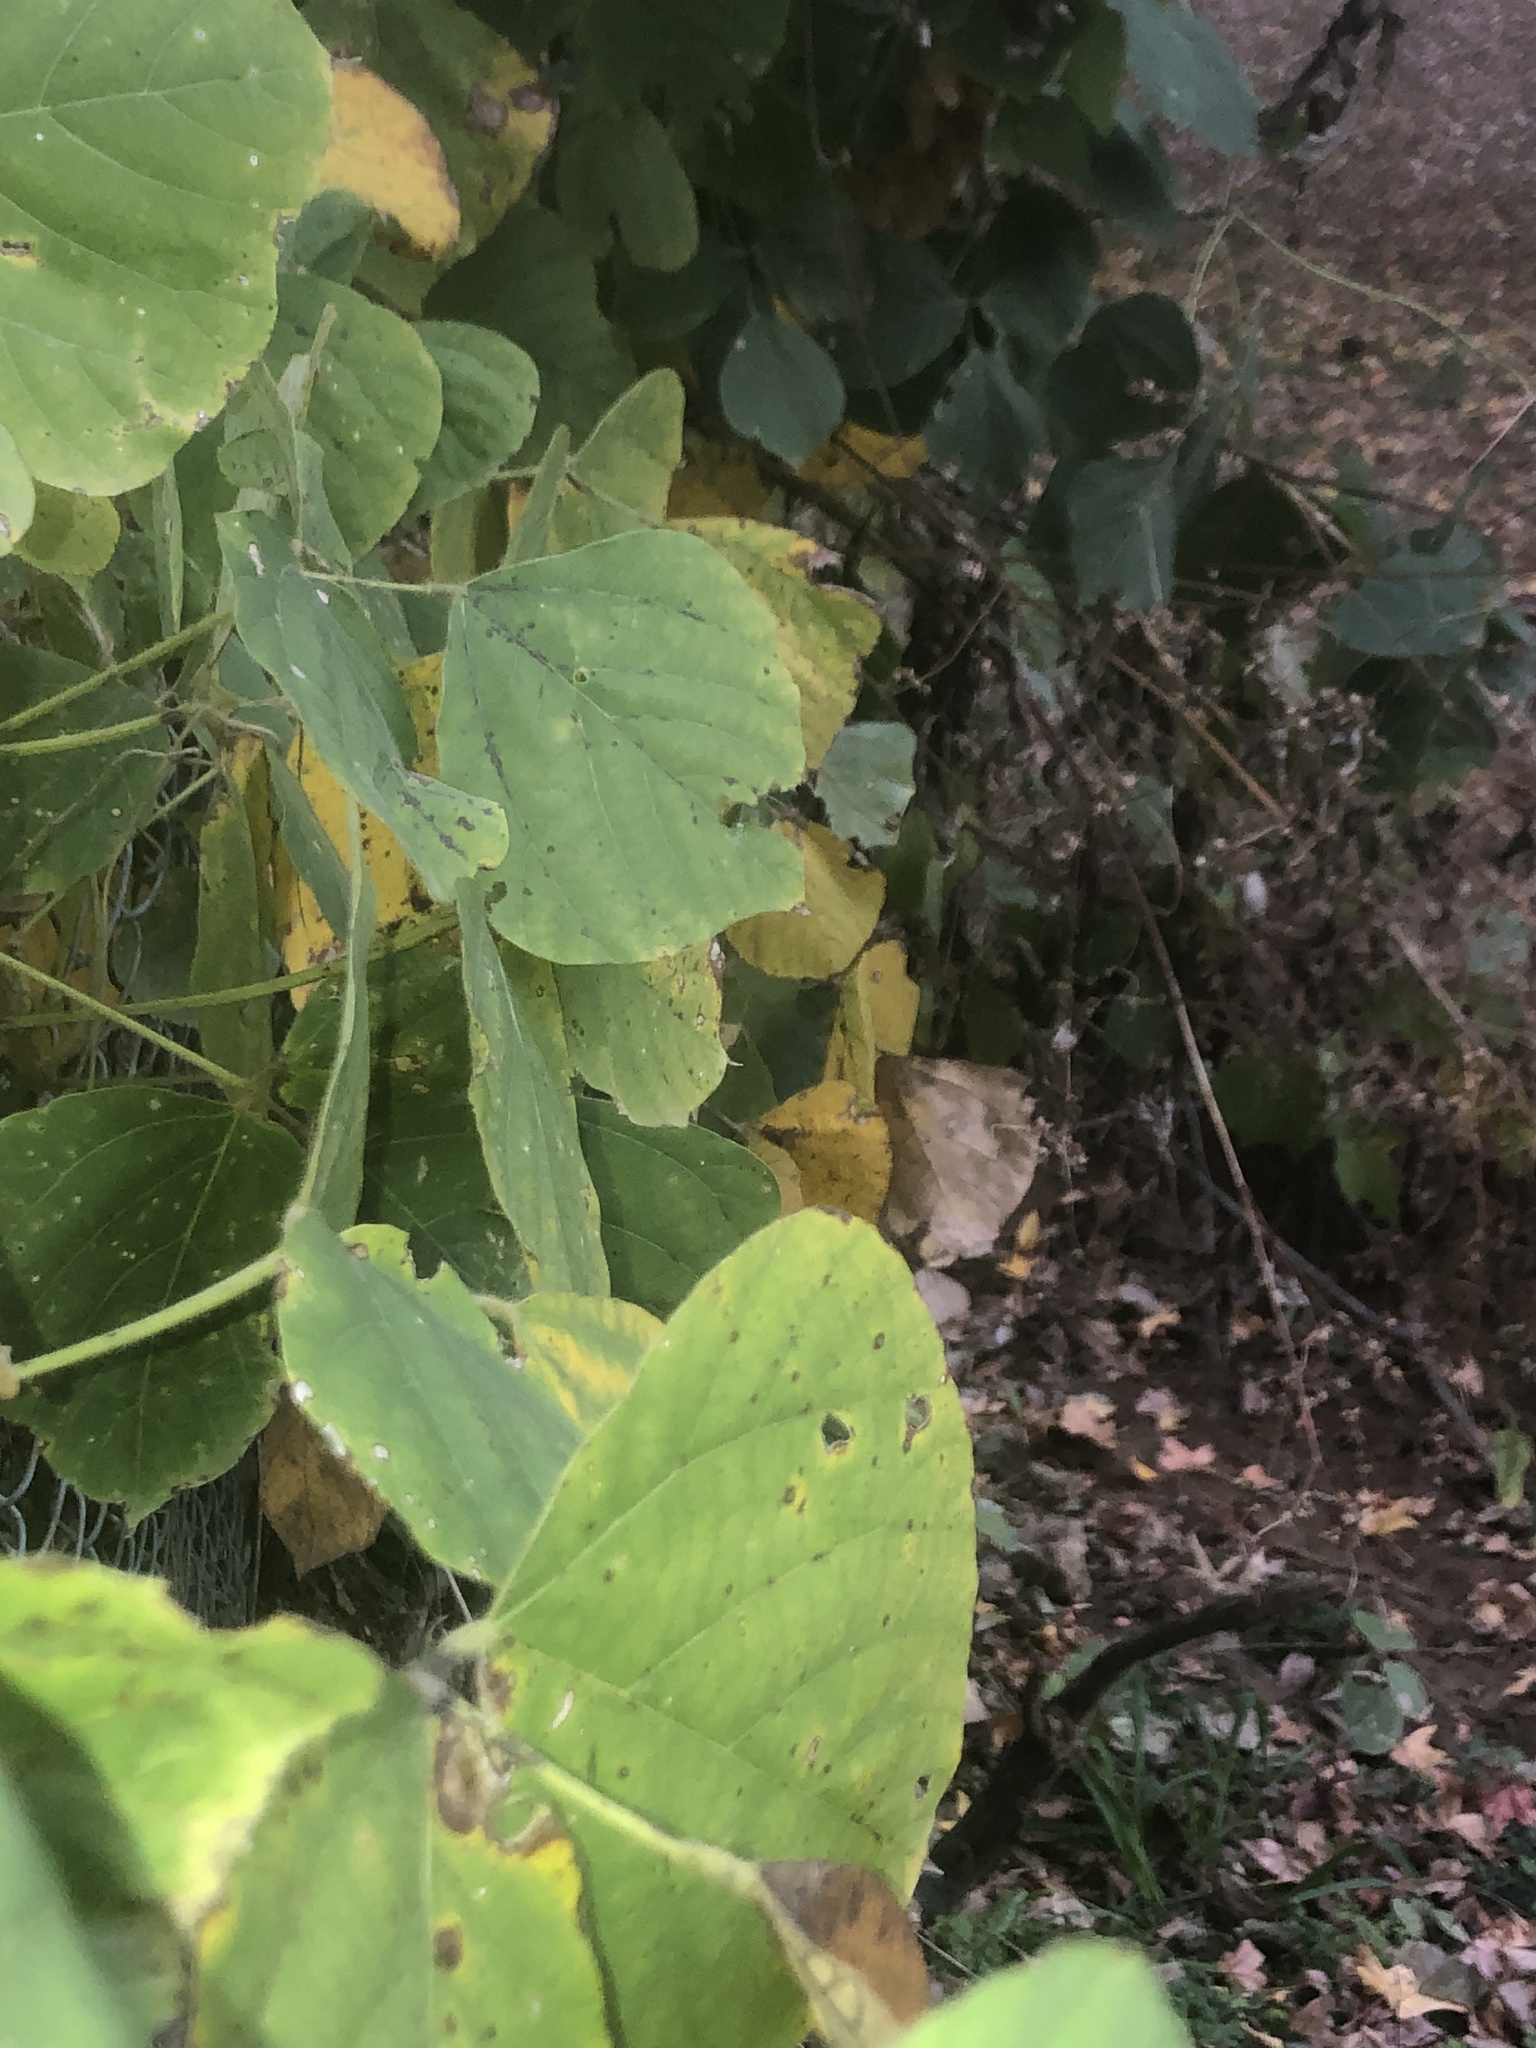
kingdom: Plantae
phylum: Tracheophyta
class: Magnoliopsida
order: Fabales
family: Fabaceae
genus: Pueraria
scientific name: Pueraria montana
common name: Kudzu
